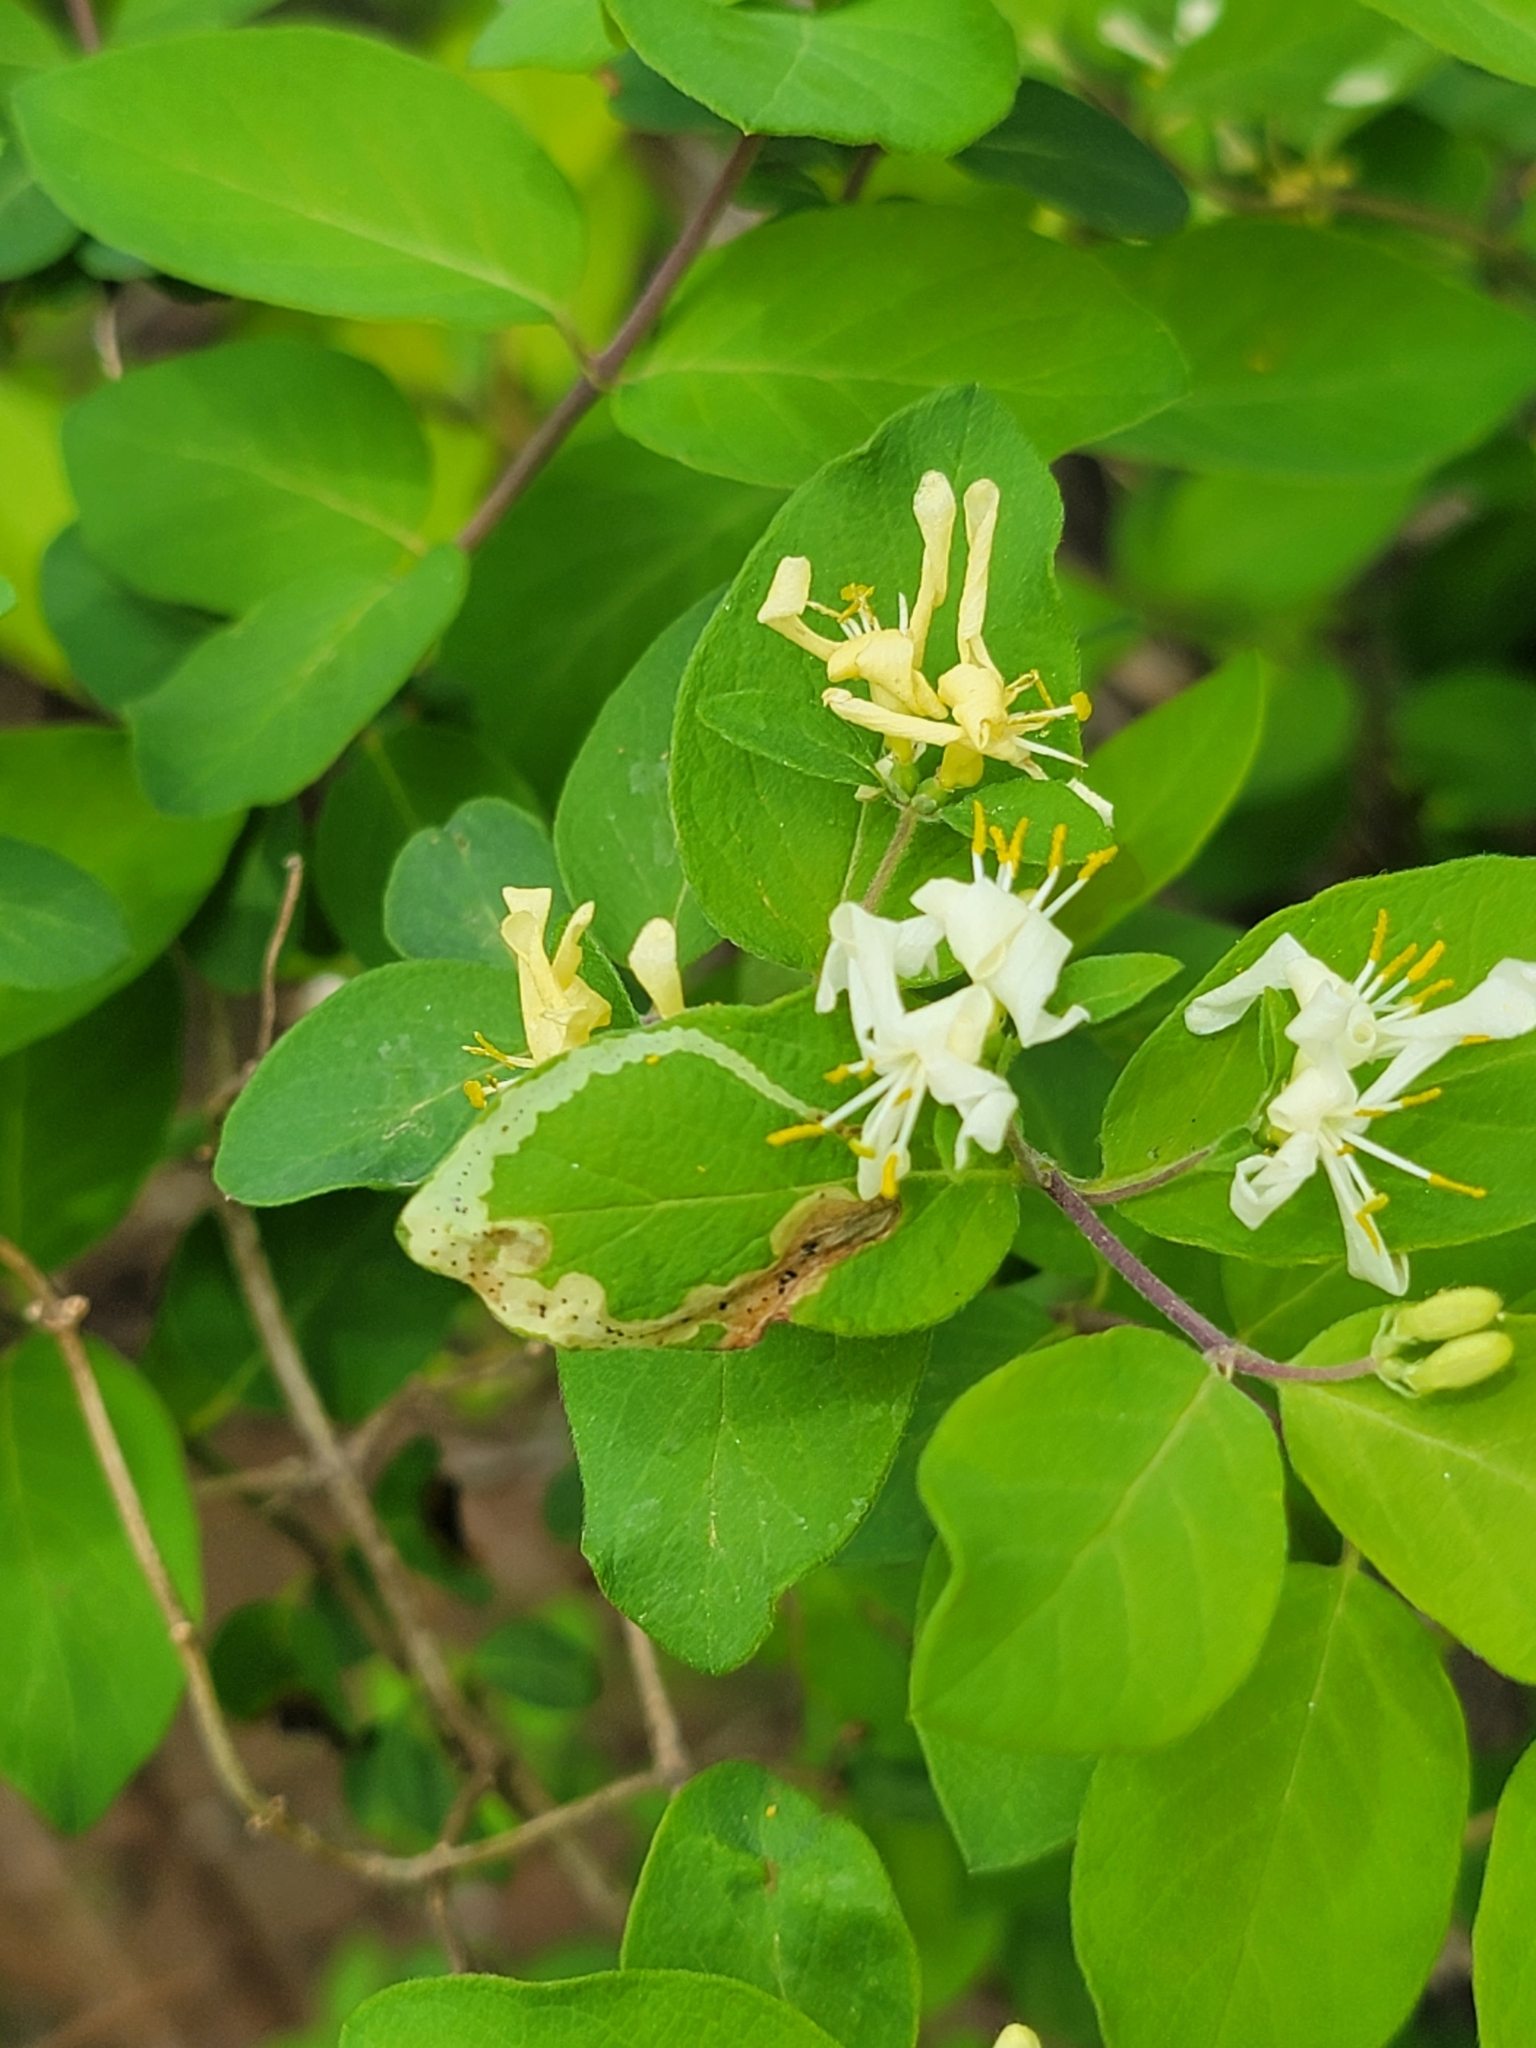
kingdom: Animalia
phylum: Arthropoda
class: Insecta
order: Diptera
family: Agromyzidae
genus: Aulagromyza
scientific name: Aulagromyza cornigera
